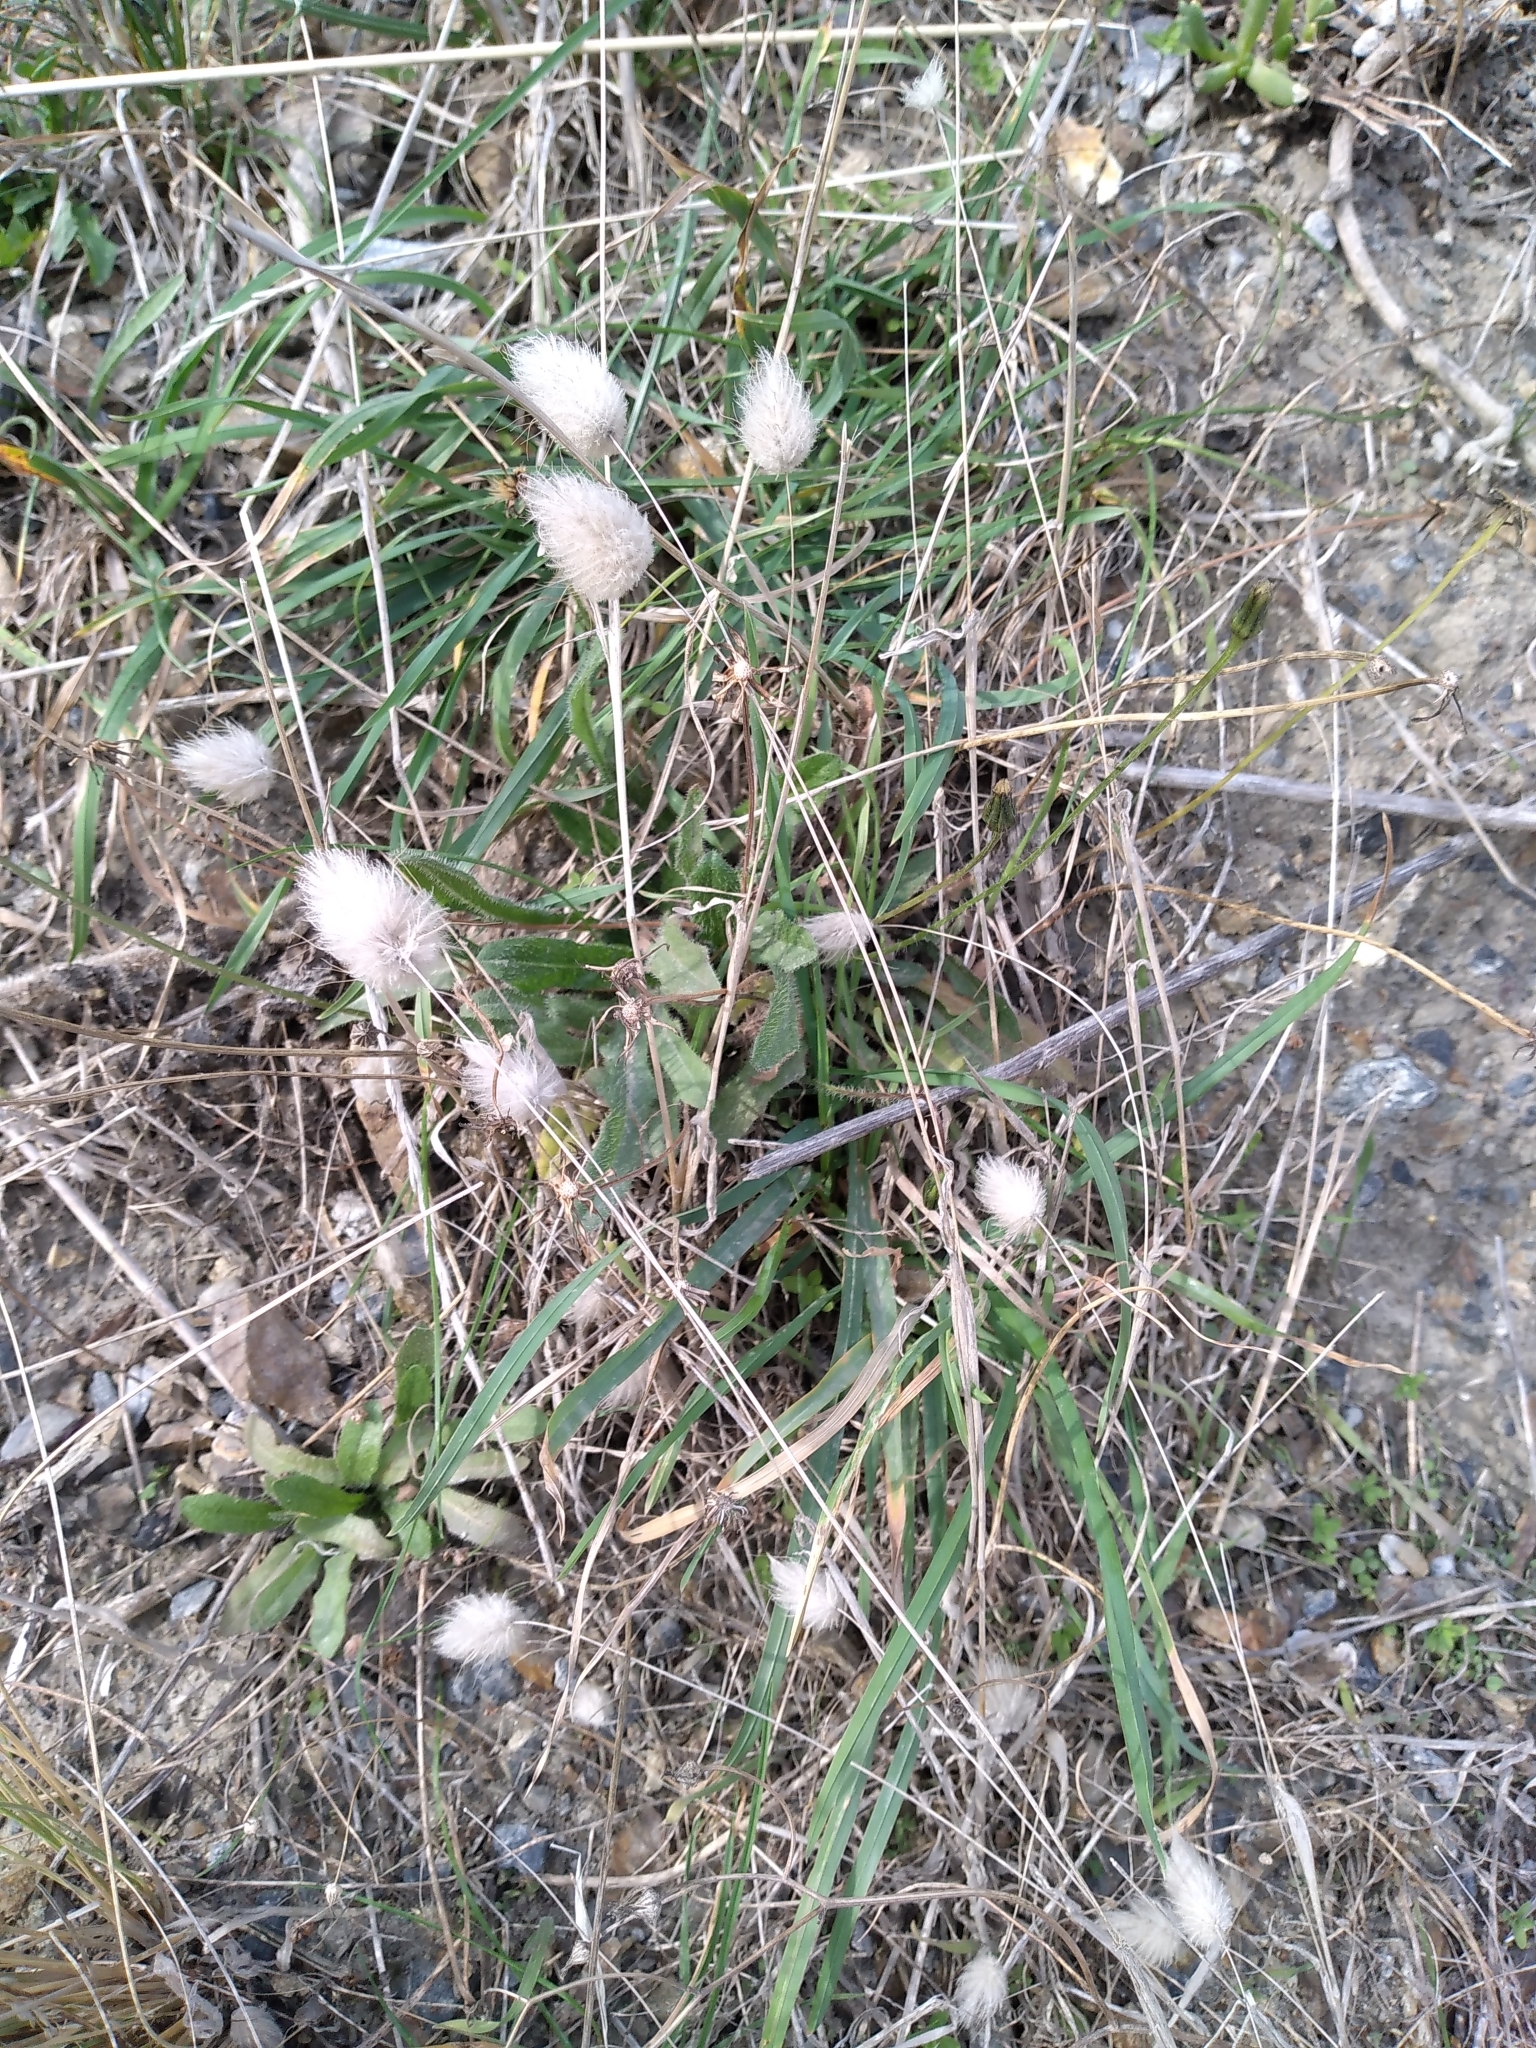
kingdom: Plantae
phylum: Tracheophyta
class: Liliopsida
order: Poales
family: Poaceae
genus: Lagurus
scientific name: Lagurus ovatus
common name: Hare's-tail
